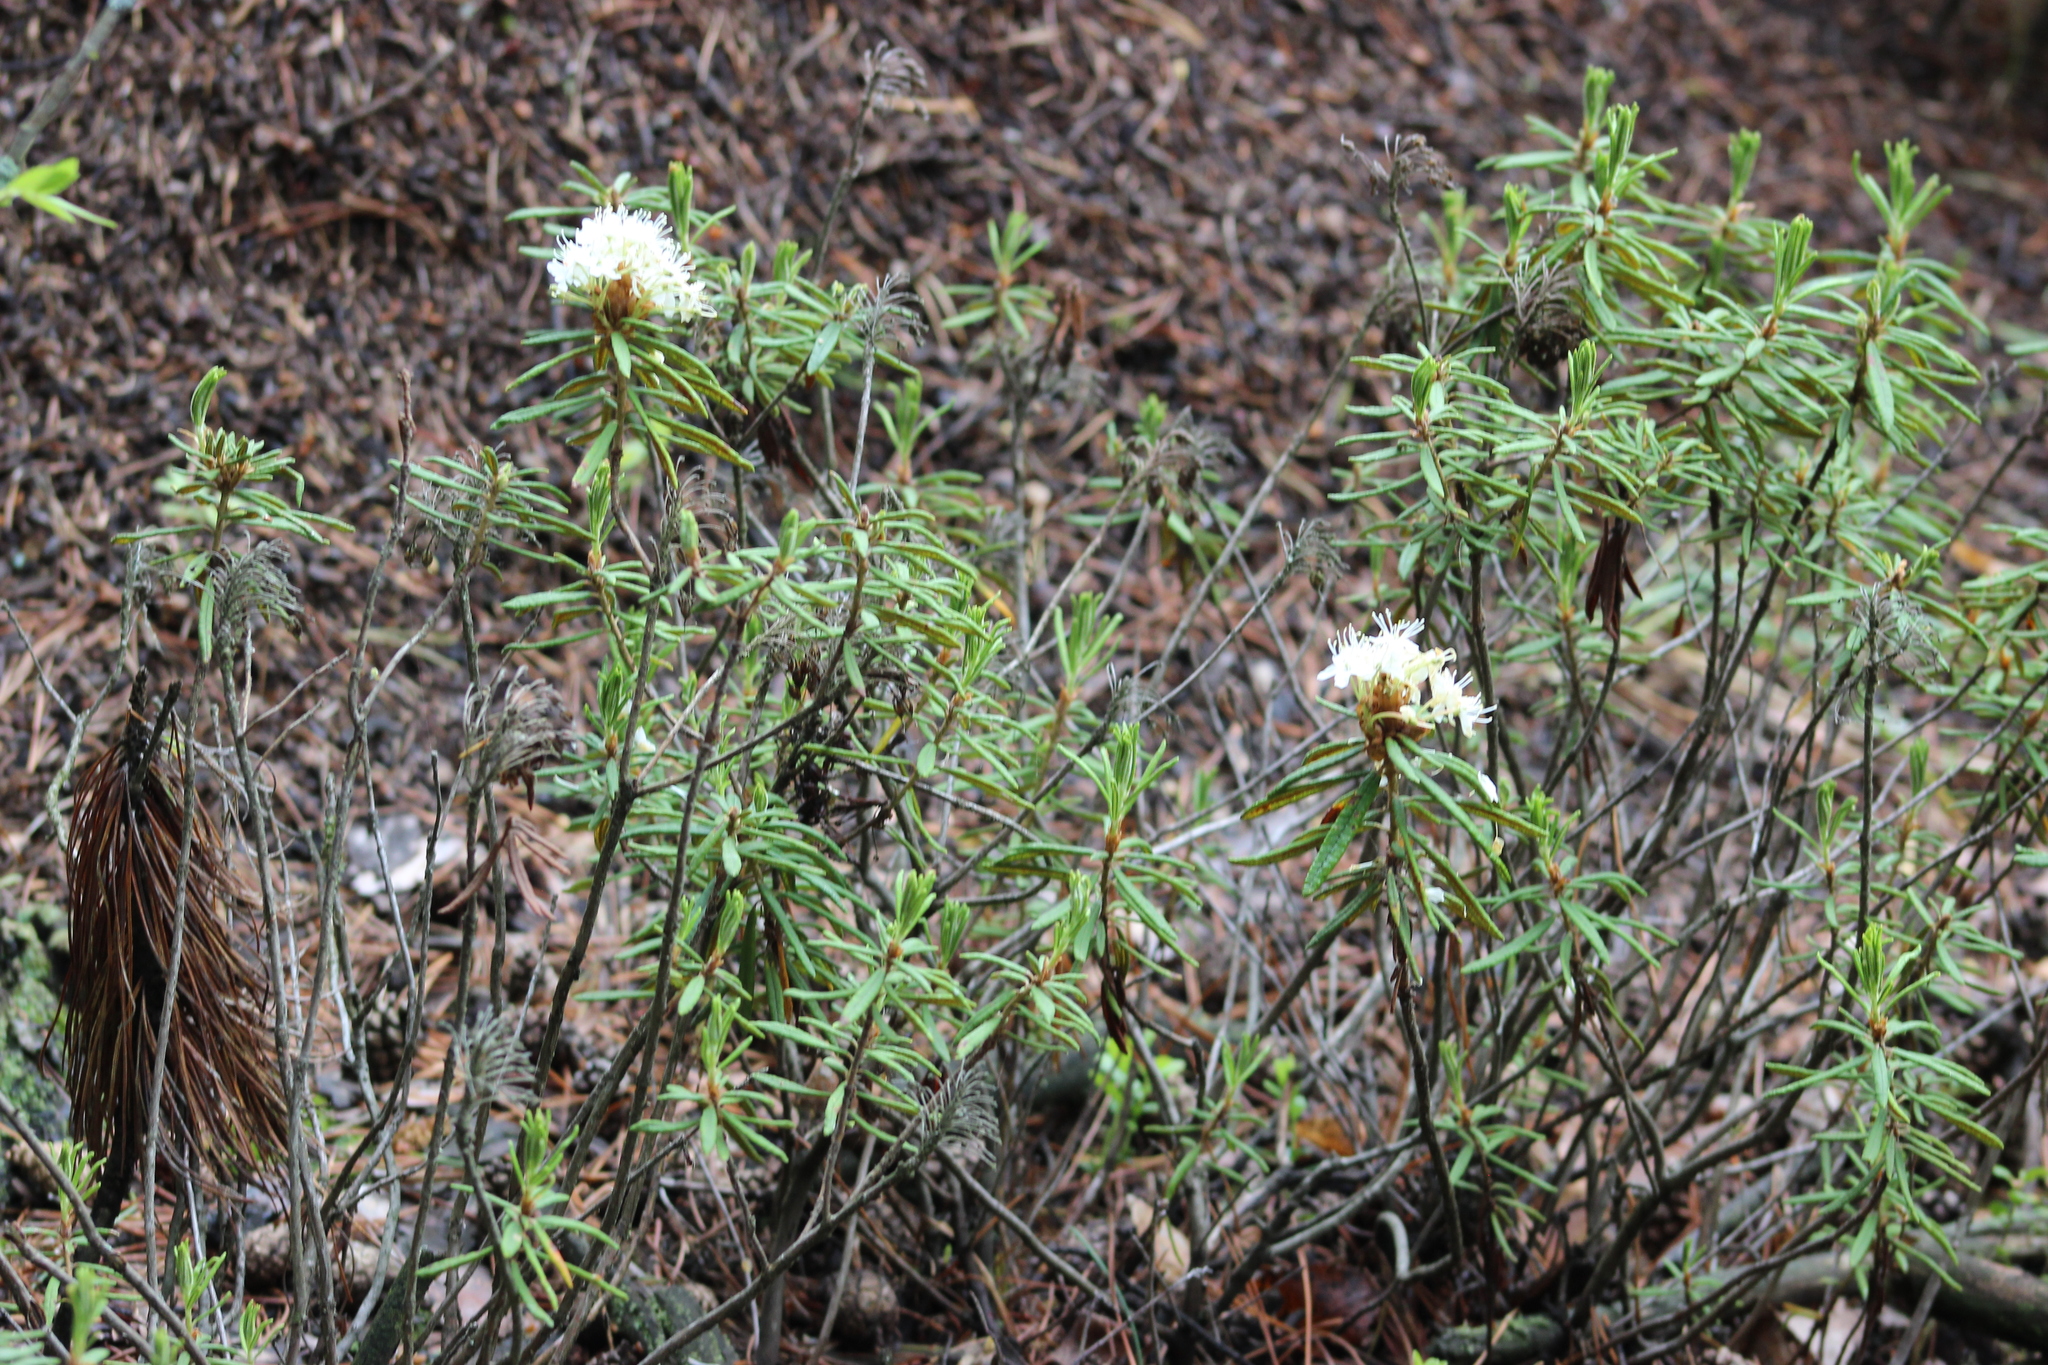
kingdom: Plantae
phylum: Tracheophyta
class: Magnoliopsida
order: Ericales
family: Ericaceae
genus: Rhododendron
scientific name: Rhododendron tomentosum
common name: Marsh labrador tea
